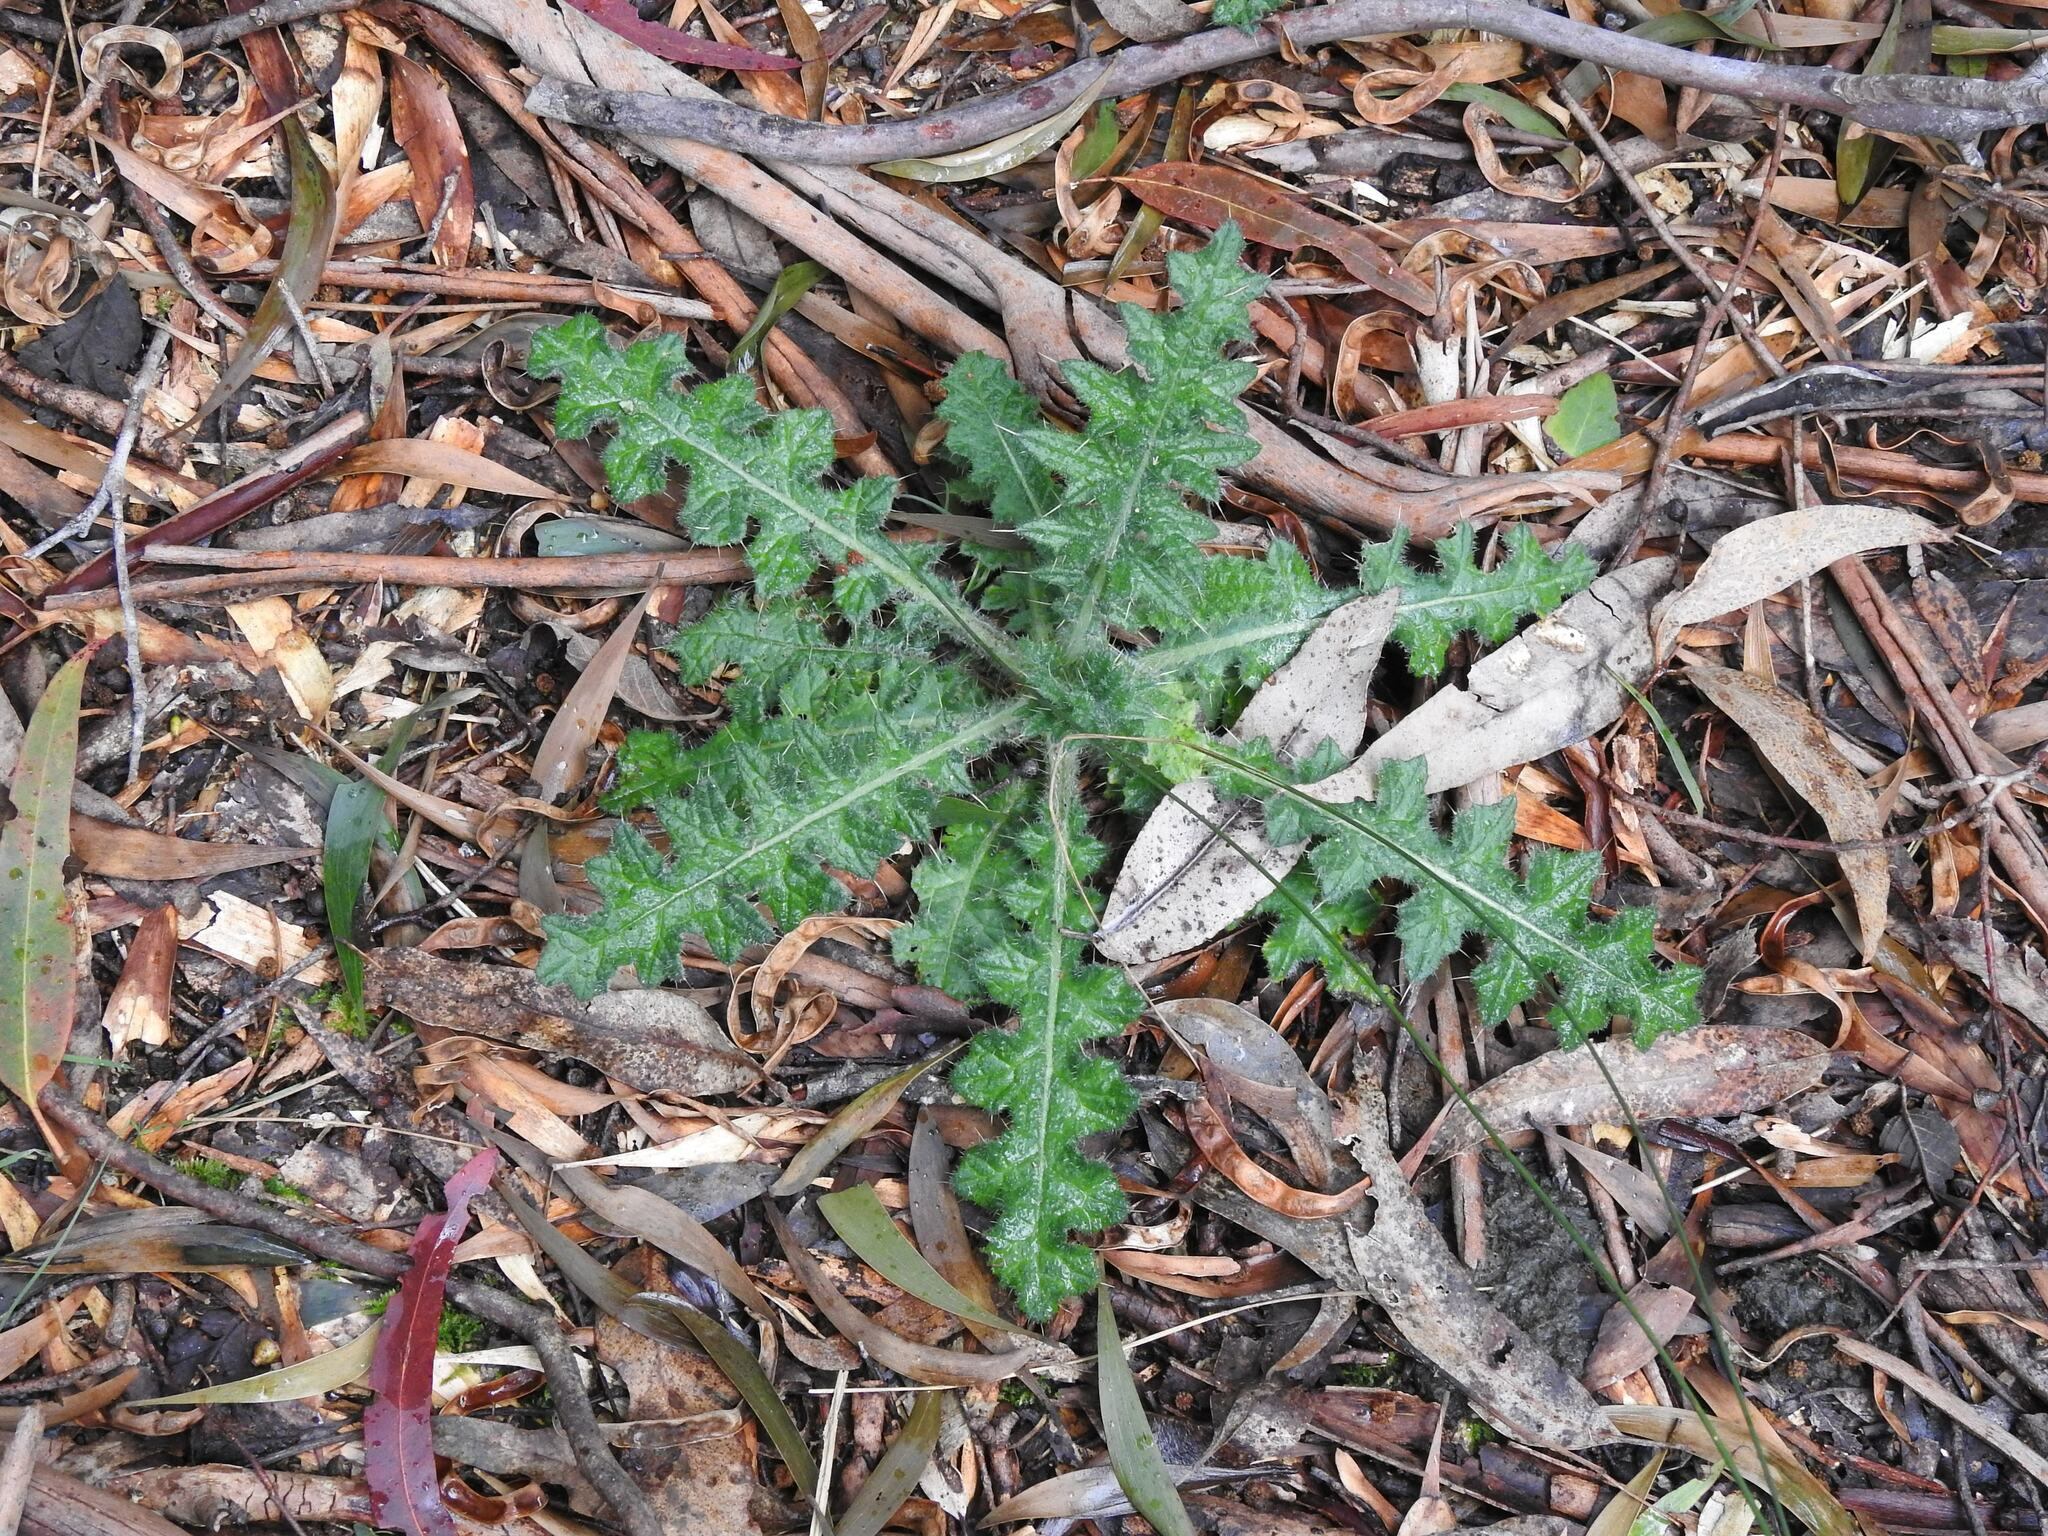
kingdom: Plantae
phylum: Tracheophyta
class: Magnoliopsida
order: Asterales
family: Asteraceae
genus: Cirsium
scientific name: Cirsium vulgare
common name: Bull thistle
